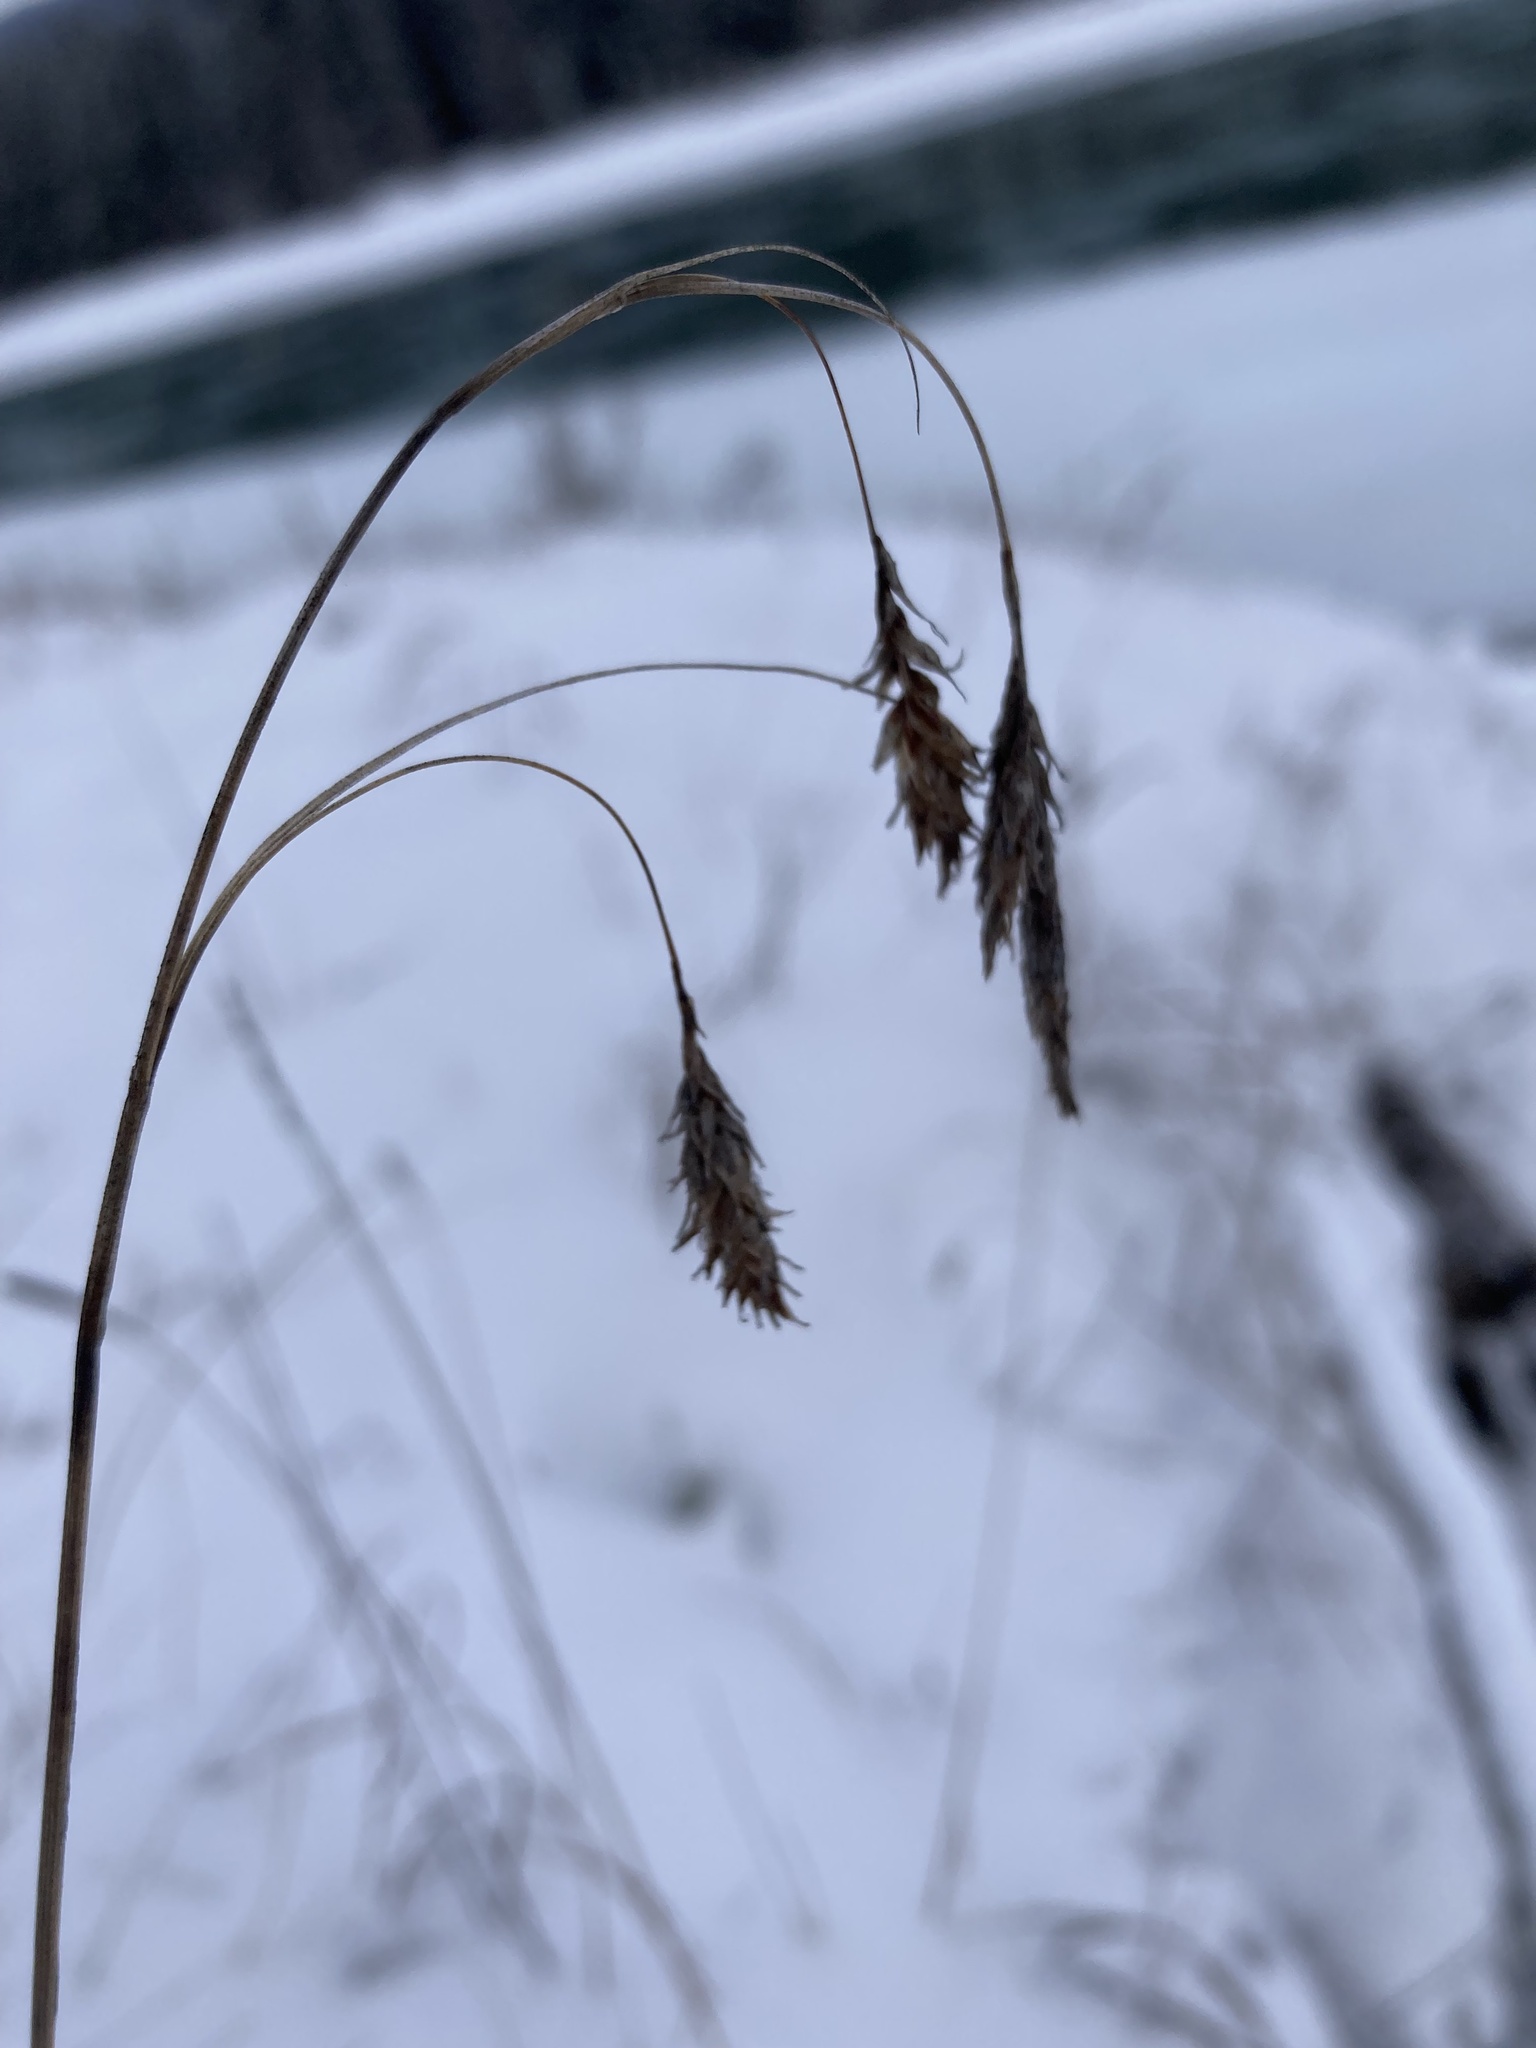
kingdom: Plantae
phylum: Tracheophyta
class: Liliopsida
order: Poales
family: Cyperaceae
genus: Carex
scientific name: Carex magellanica
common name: Bog sedge
